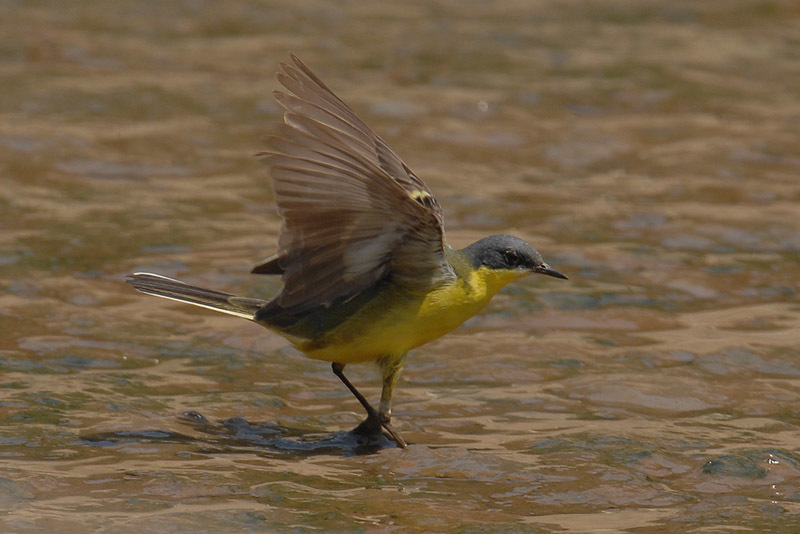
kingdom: Animalia
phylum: Chordata
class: Aves
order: Passeriformes
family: Motacillidae
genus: Motacilla
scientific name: Motacilla tschutschensis
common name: Eastern yellow wagtail
